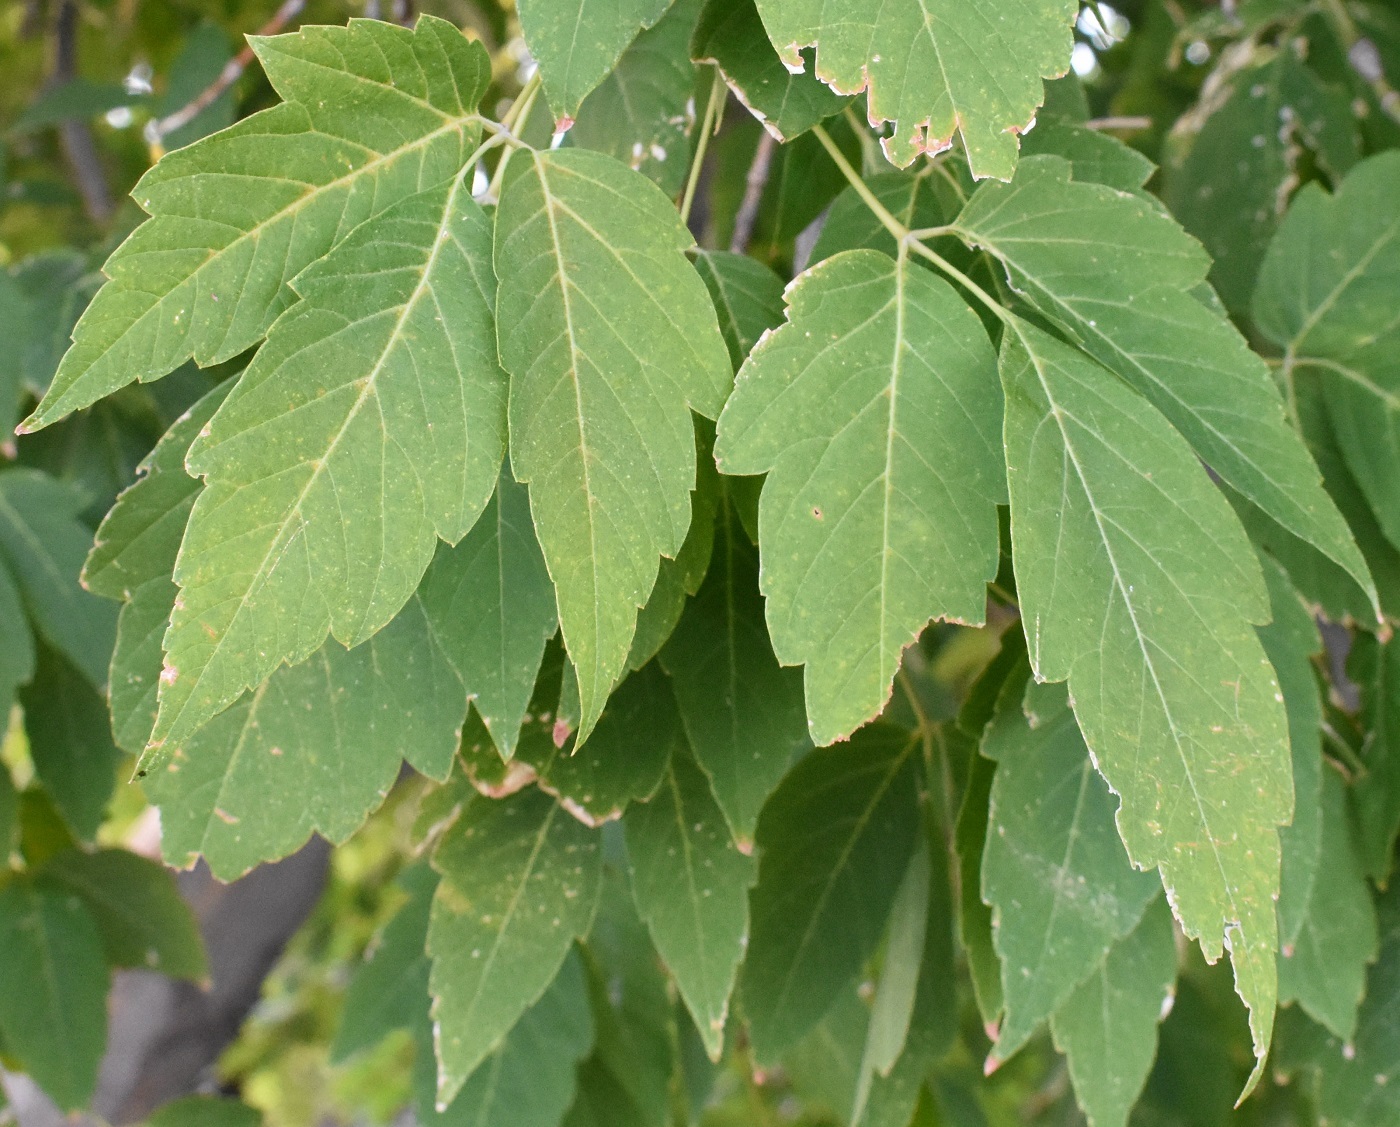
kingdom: Plantae
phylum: Tracheophyta
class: Magnoliopsida
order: Sapindales
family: Sapindaceae
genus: Acer
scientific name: Acer negundo
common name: Ashleaf maple
